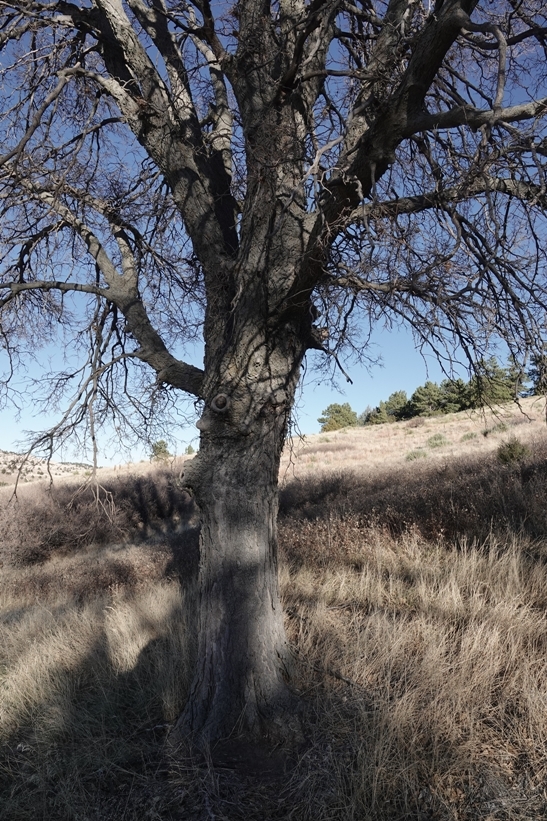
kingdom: Plantae
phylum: Tracheophyta
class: Magnoliopsida
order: Rosales
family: Cannabaceae
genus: Celtis
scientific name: Celtis occidentalis
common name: Common hackberry
